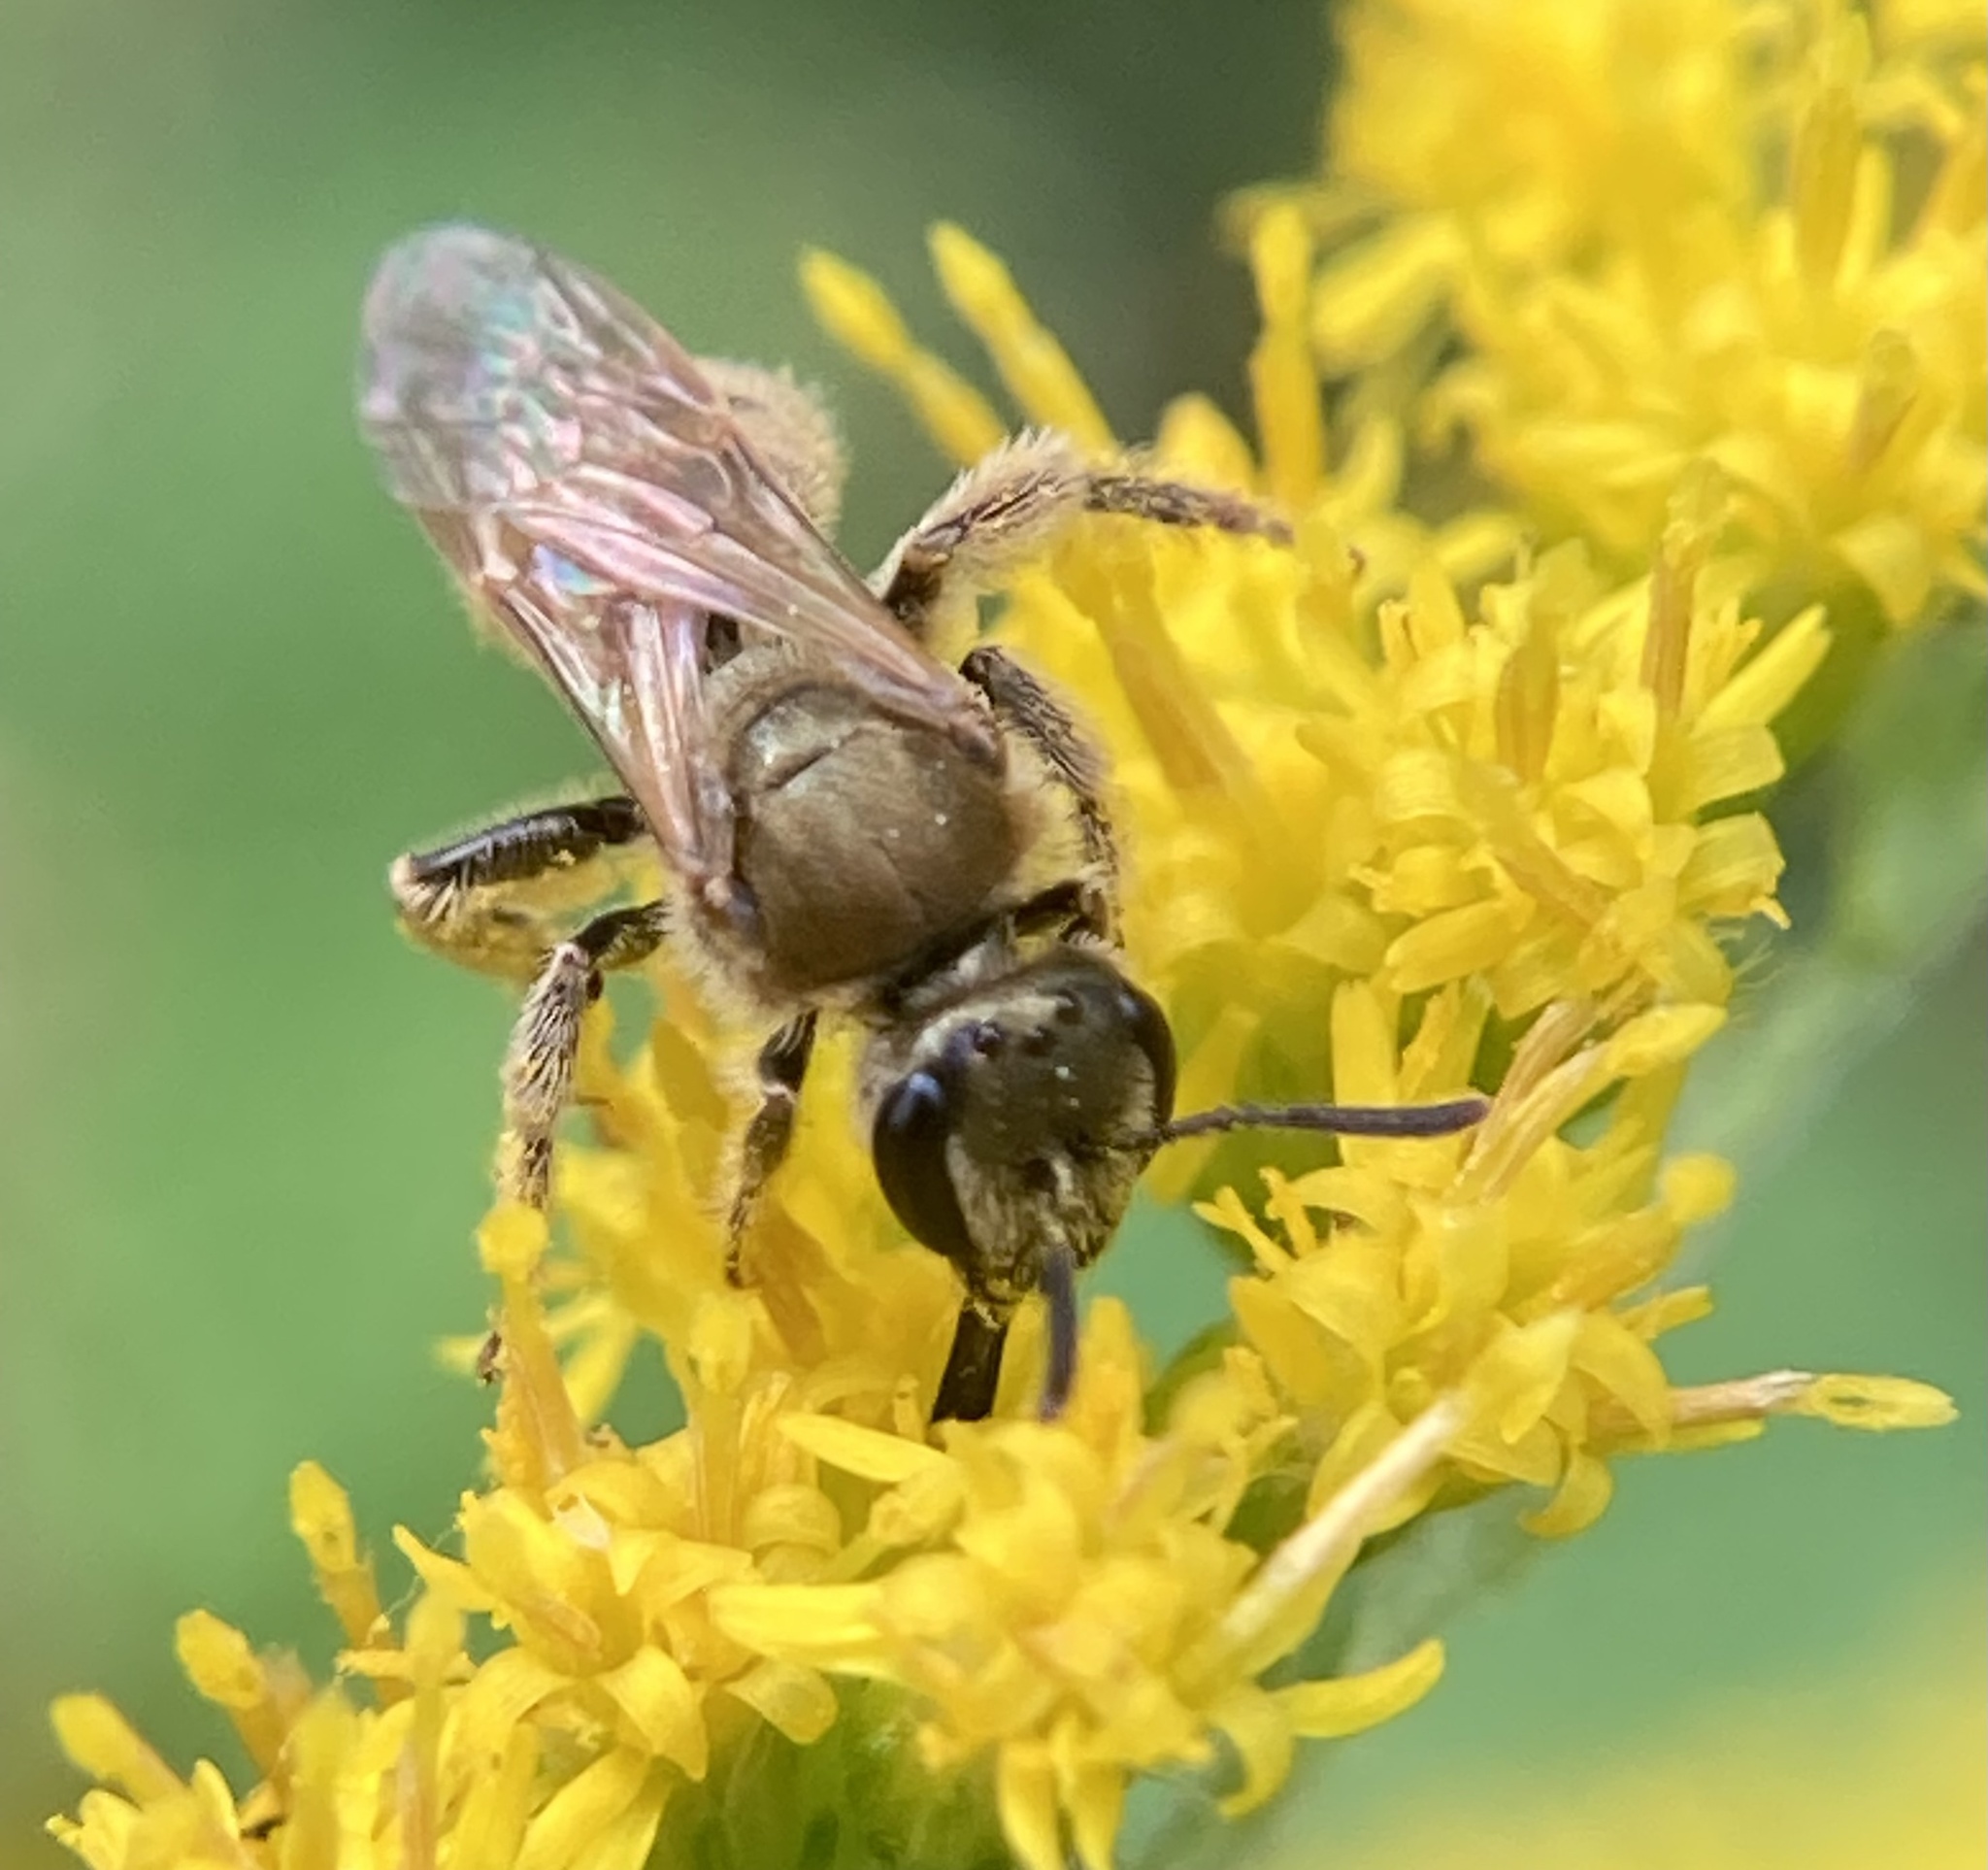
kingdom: Animalia
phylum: Arthropoda
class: Insecta
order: Hymenoptera
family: Halictidae
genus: Lasioglossum
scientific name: Lasioglossum
